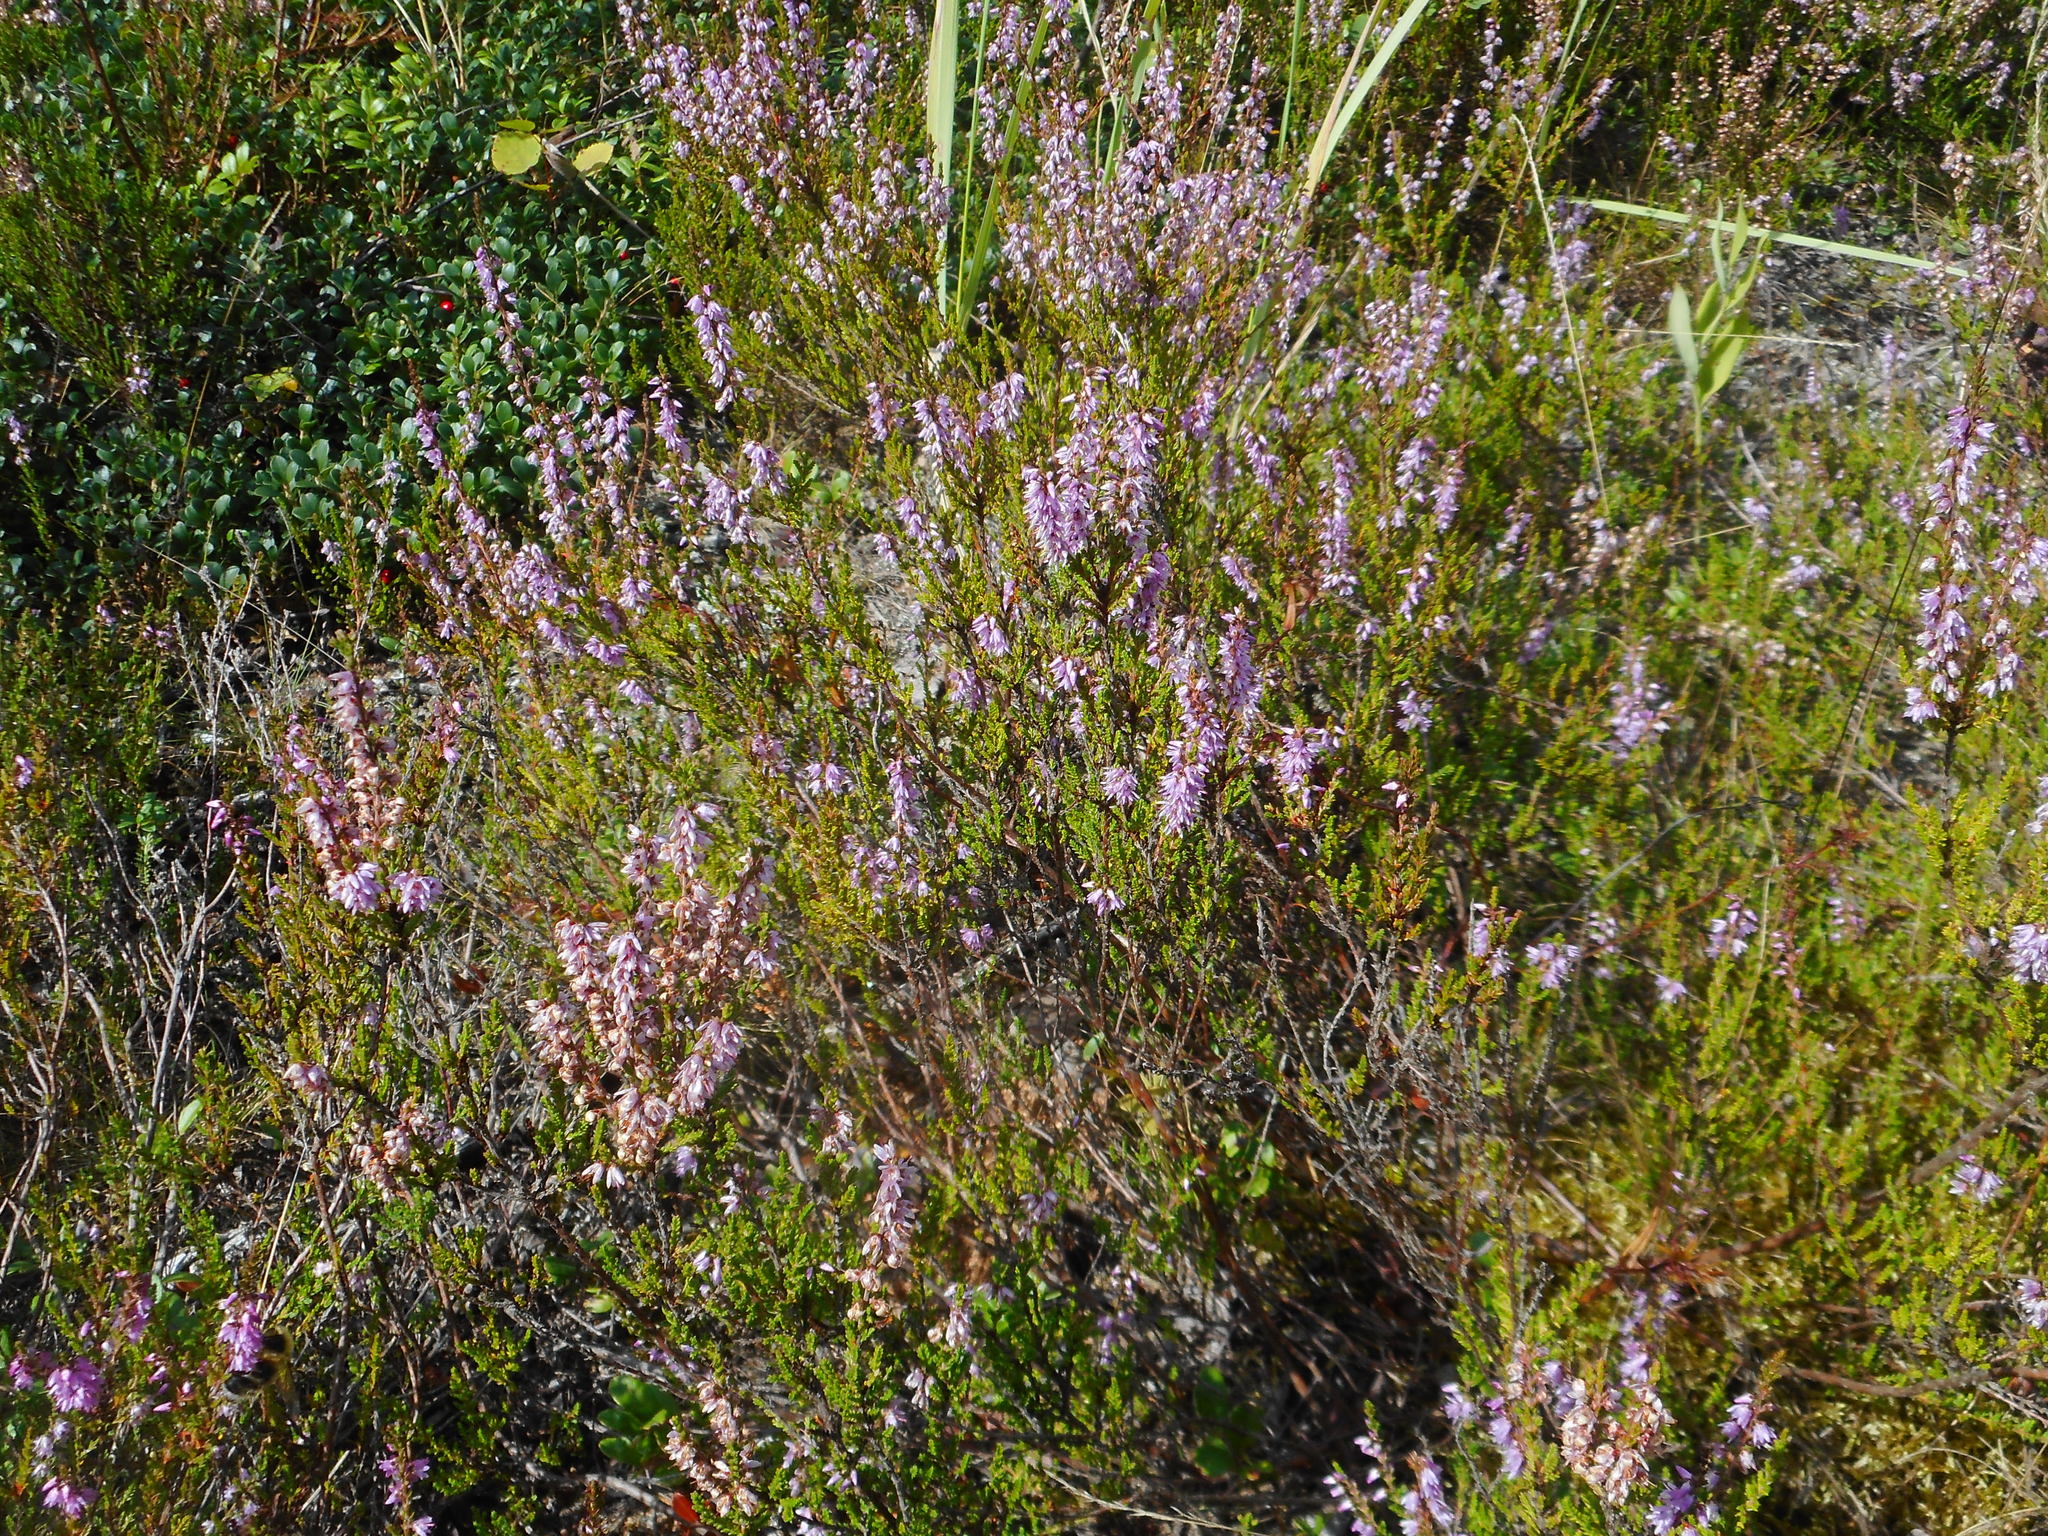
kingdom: Plantae
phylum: Tracheophyta
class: Magnoliopsida
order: Ericales
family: Ericaceae
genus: Calluna
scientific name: Calluna vulgaris
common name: Heather
